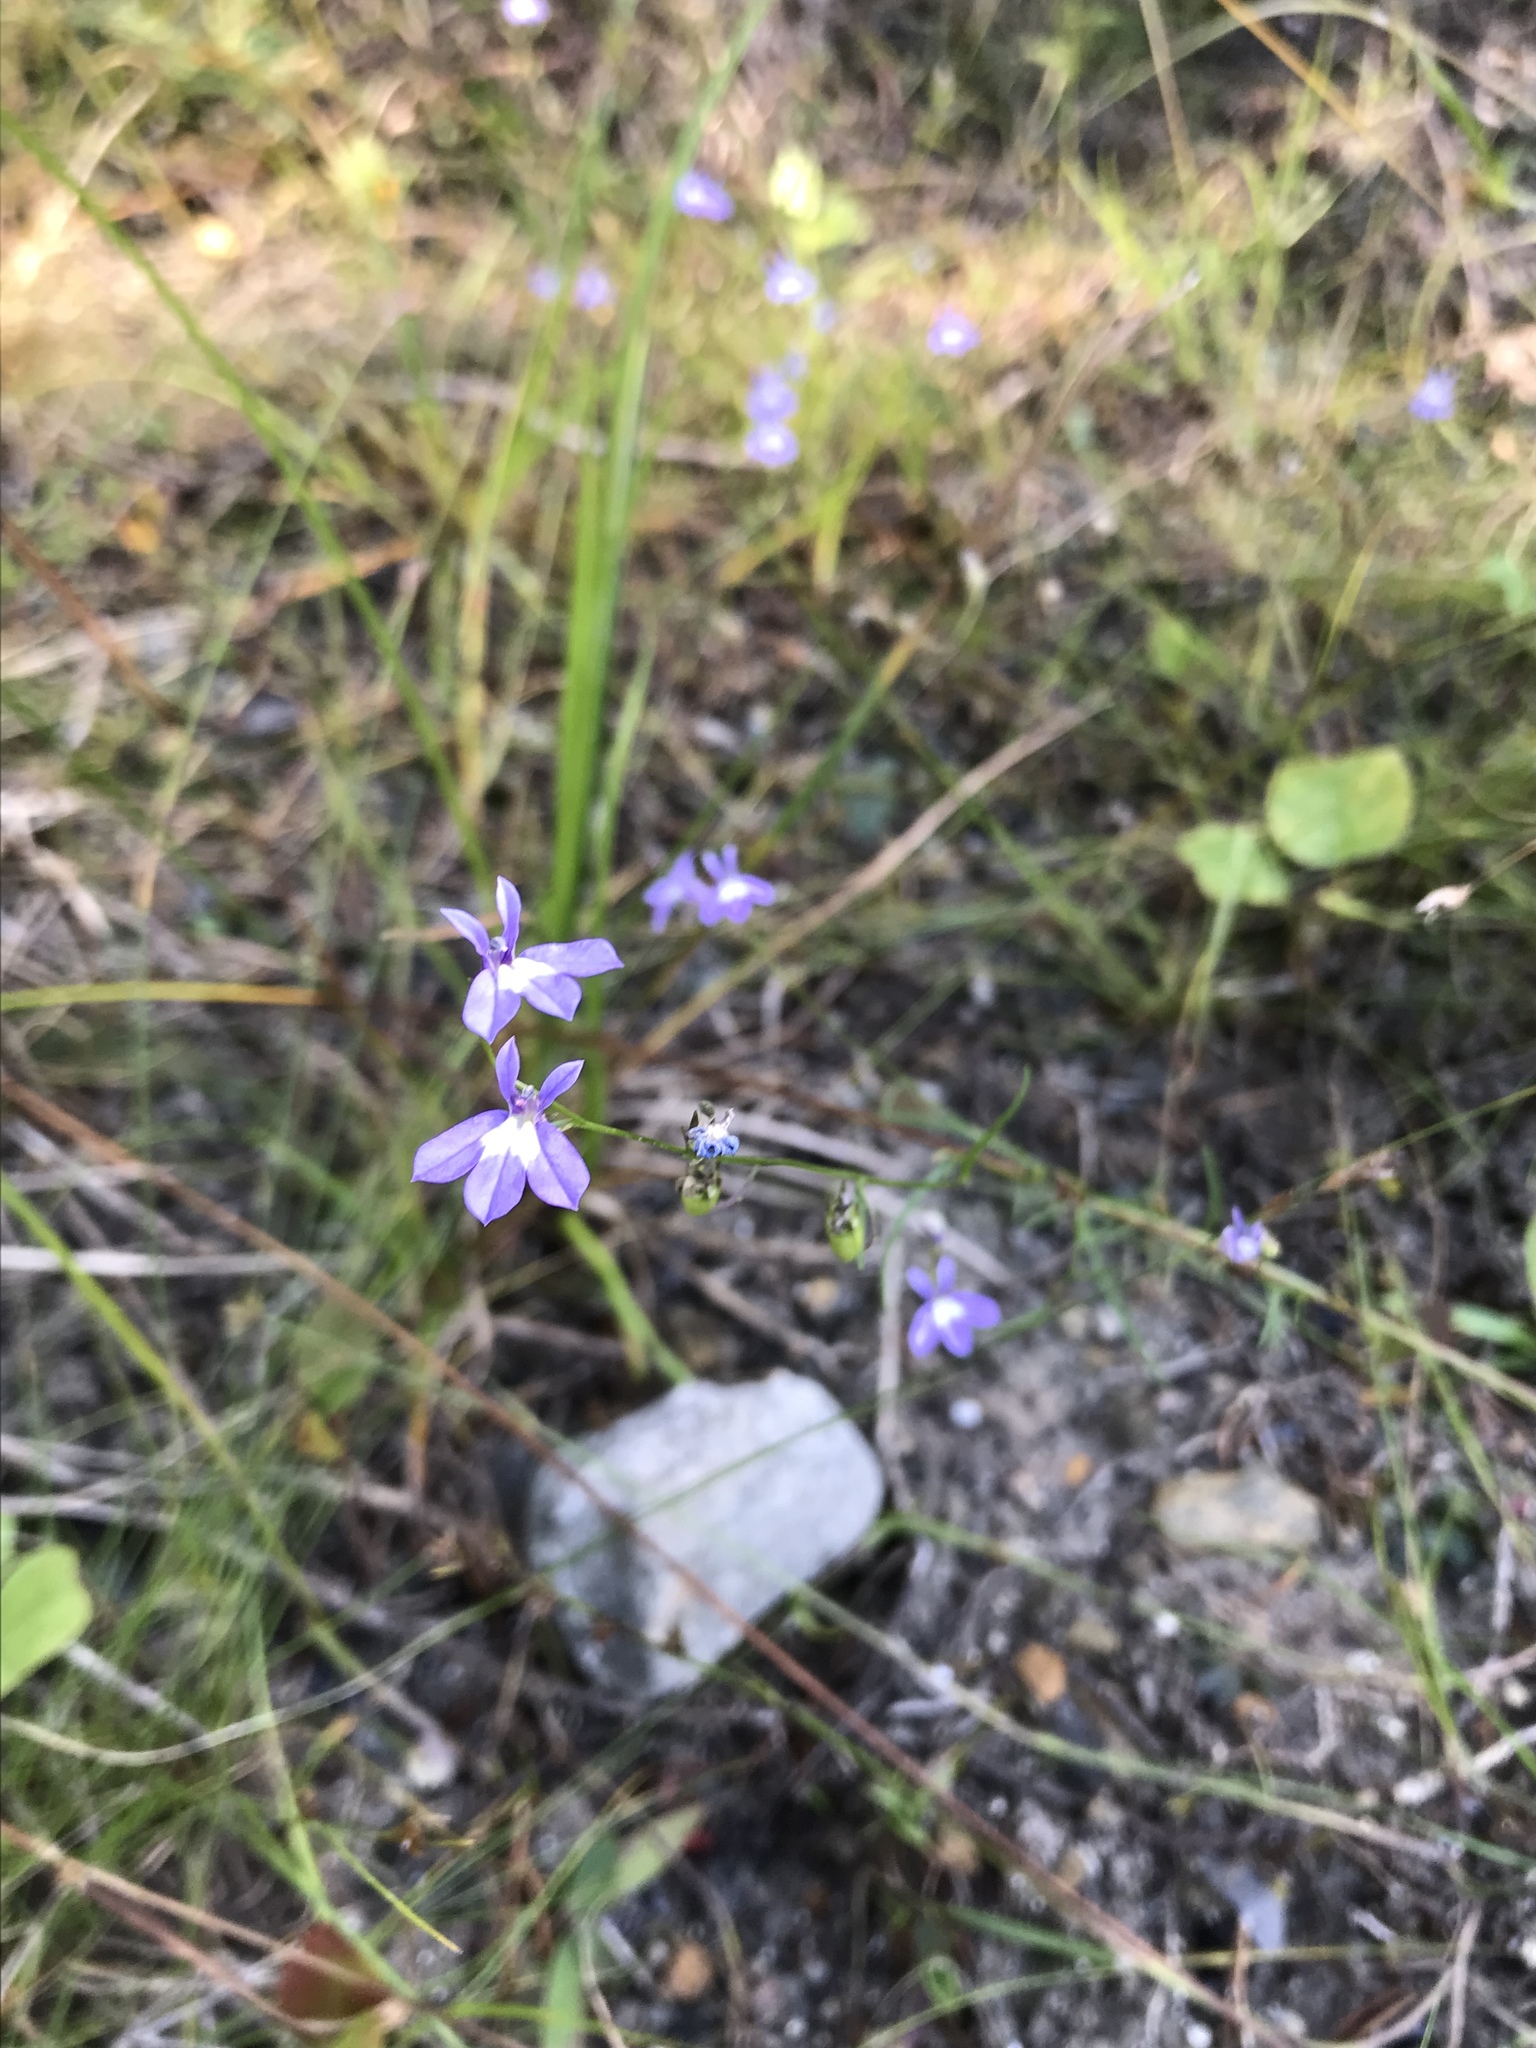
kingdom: Plantae
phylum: Tracheophyta
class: Magnoliopsida
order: Asterales
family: Campanulaceae
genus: Lobelia
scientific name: Lobelia kalmii
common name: Kalm's lobelia
